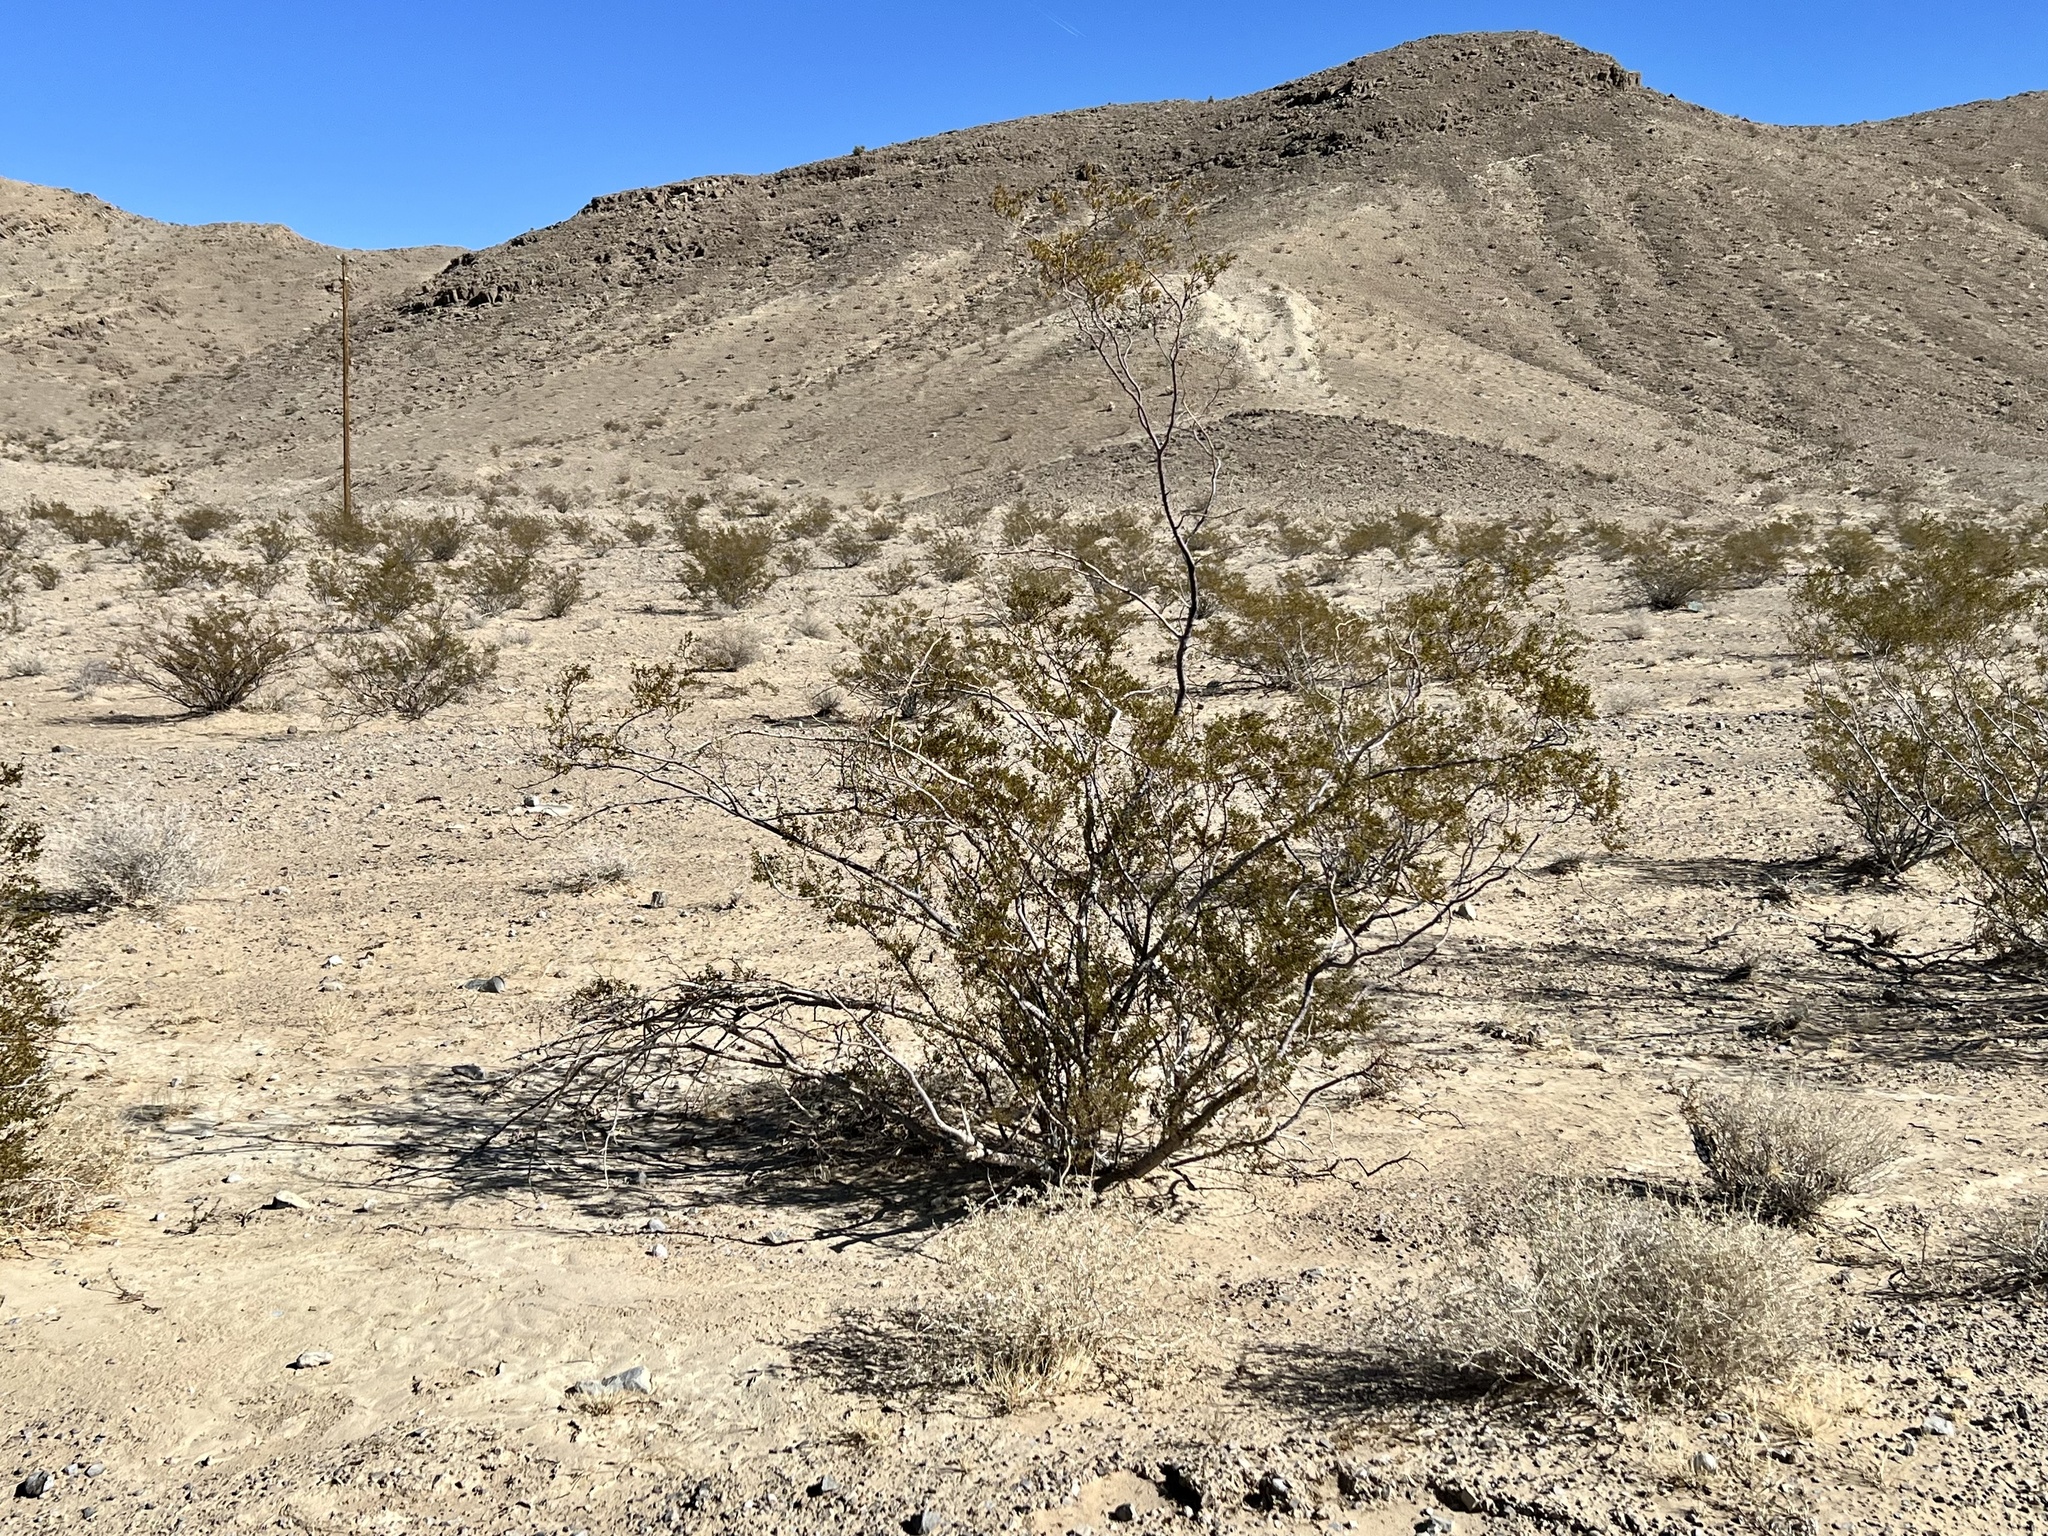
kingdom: Plantae
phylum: Tracheophyta
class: Magnoliopsida
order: Zygophyllales
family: Zygophyllaceae
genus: Larrea
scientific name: Larrea tridentata
